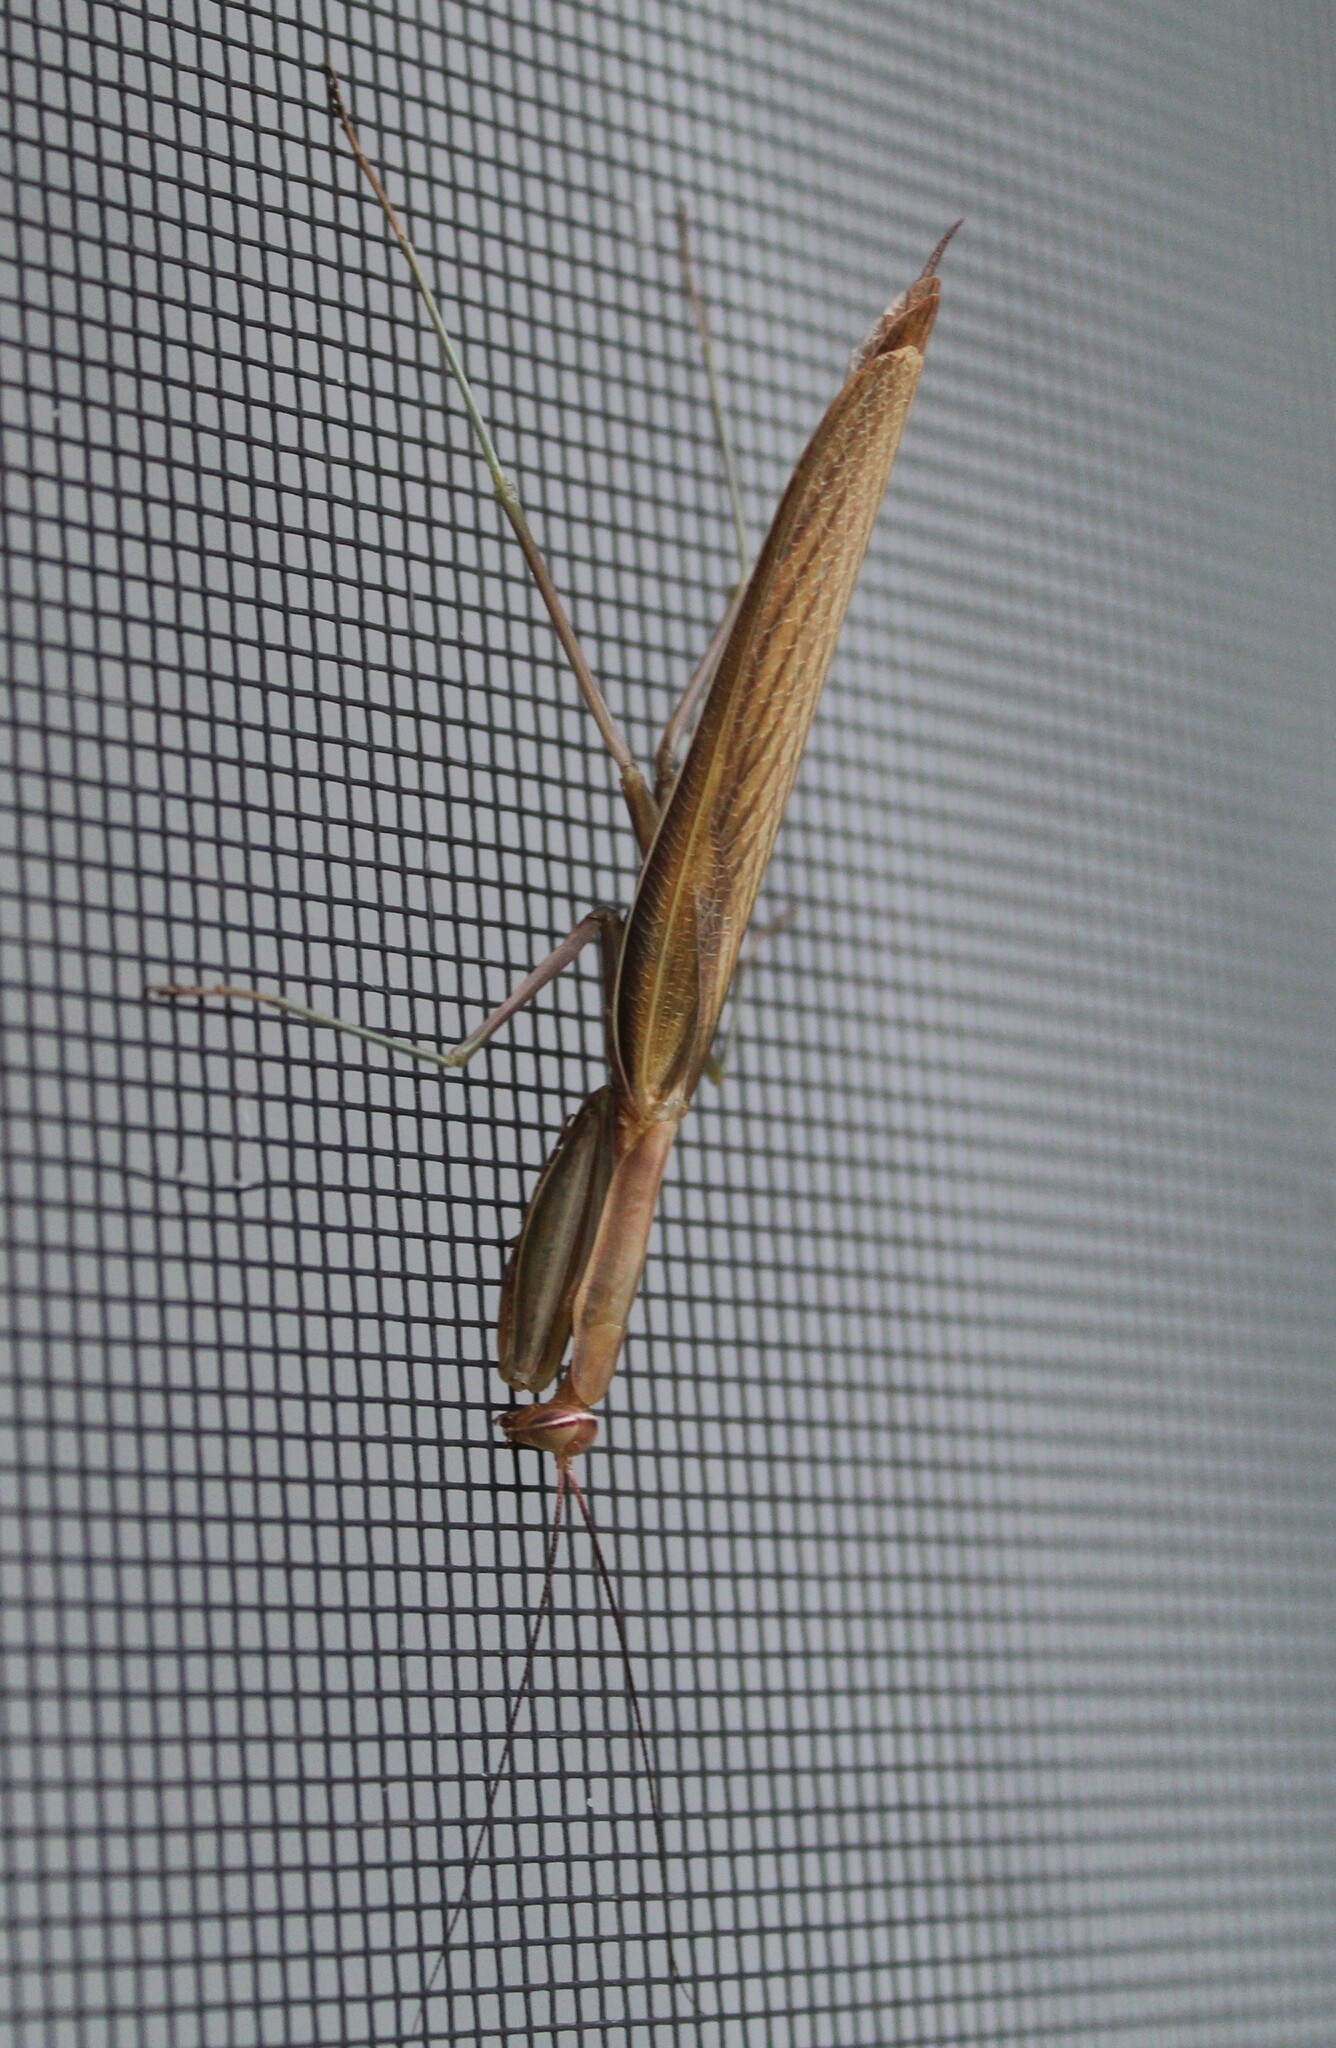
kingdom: Animalia
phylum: Arthropoda
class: Insecta
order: Mantodea
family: Mantidae
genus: Mantis
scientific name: Mantis religiosa
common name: Praying mantis
